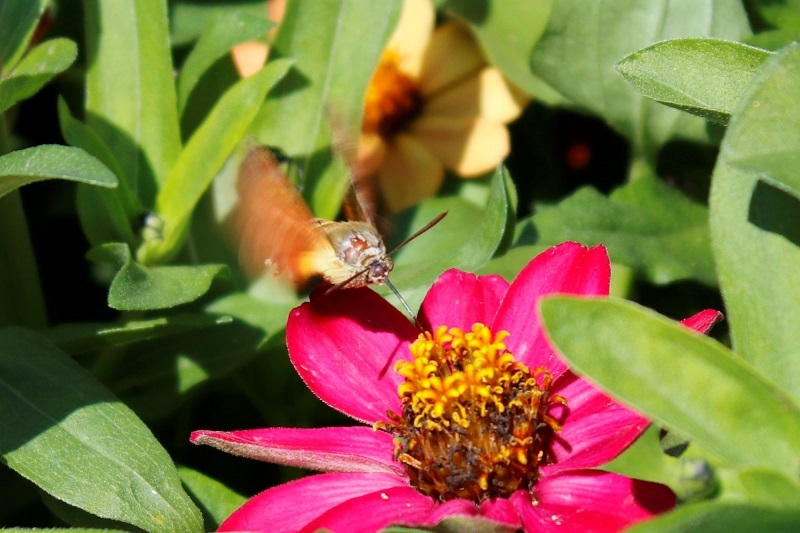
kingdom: Animalia
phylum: Arthropoda
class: Insecta
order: Lepidoptera
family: Sphingidae
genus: Macroglossum
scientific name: Macroglossum trochilus
